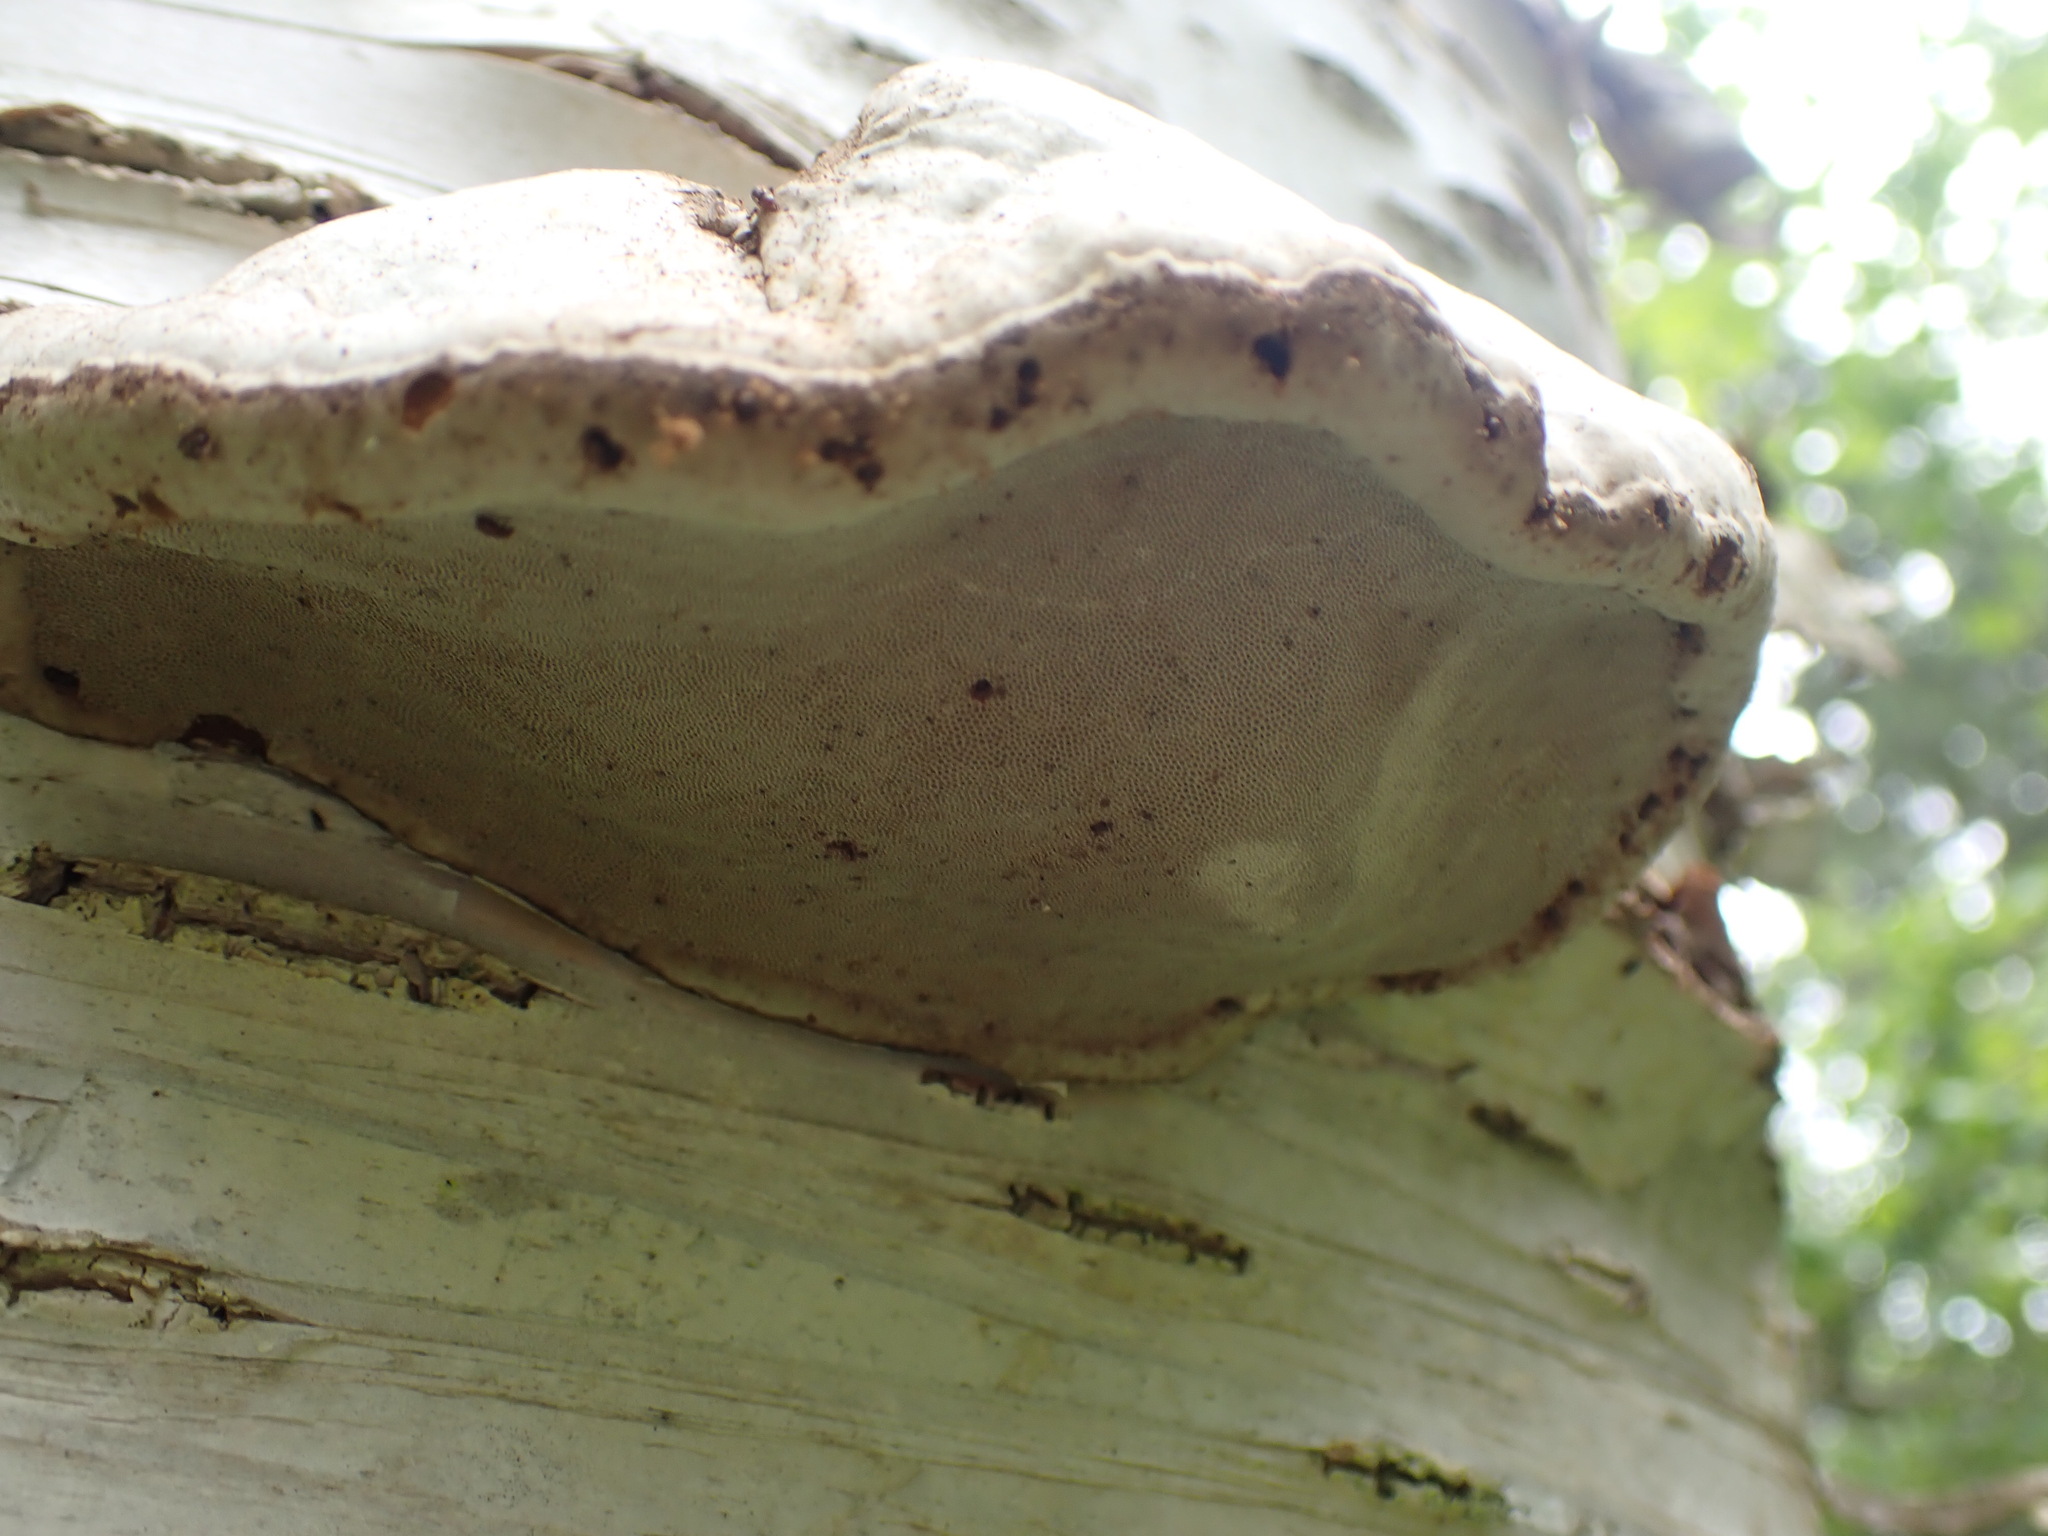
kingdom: Fungi
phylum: Basidiomycota
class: Agaricomycetes
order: Polyporales
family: Fomitopsidaceae
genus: Fomitopsis
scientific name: Fomitopsis betulina
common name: Birch polypore
